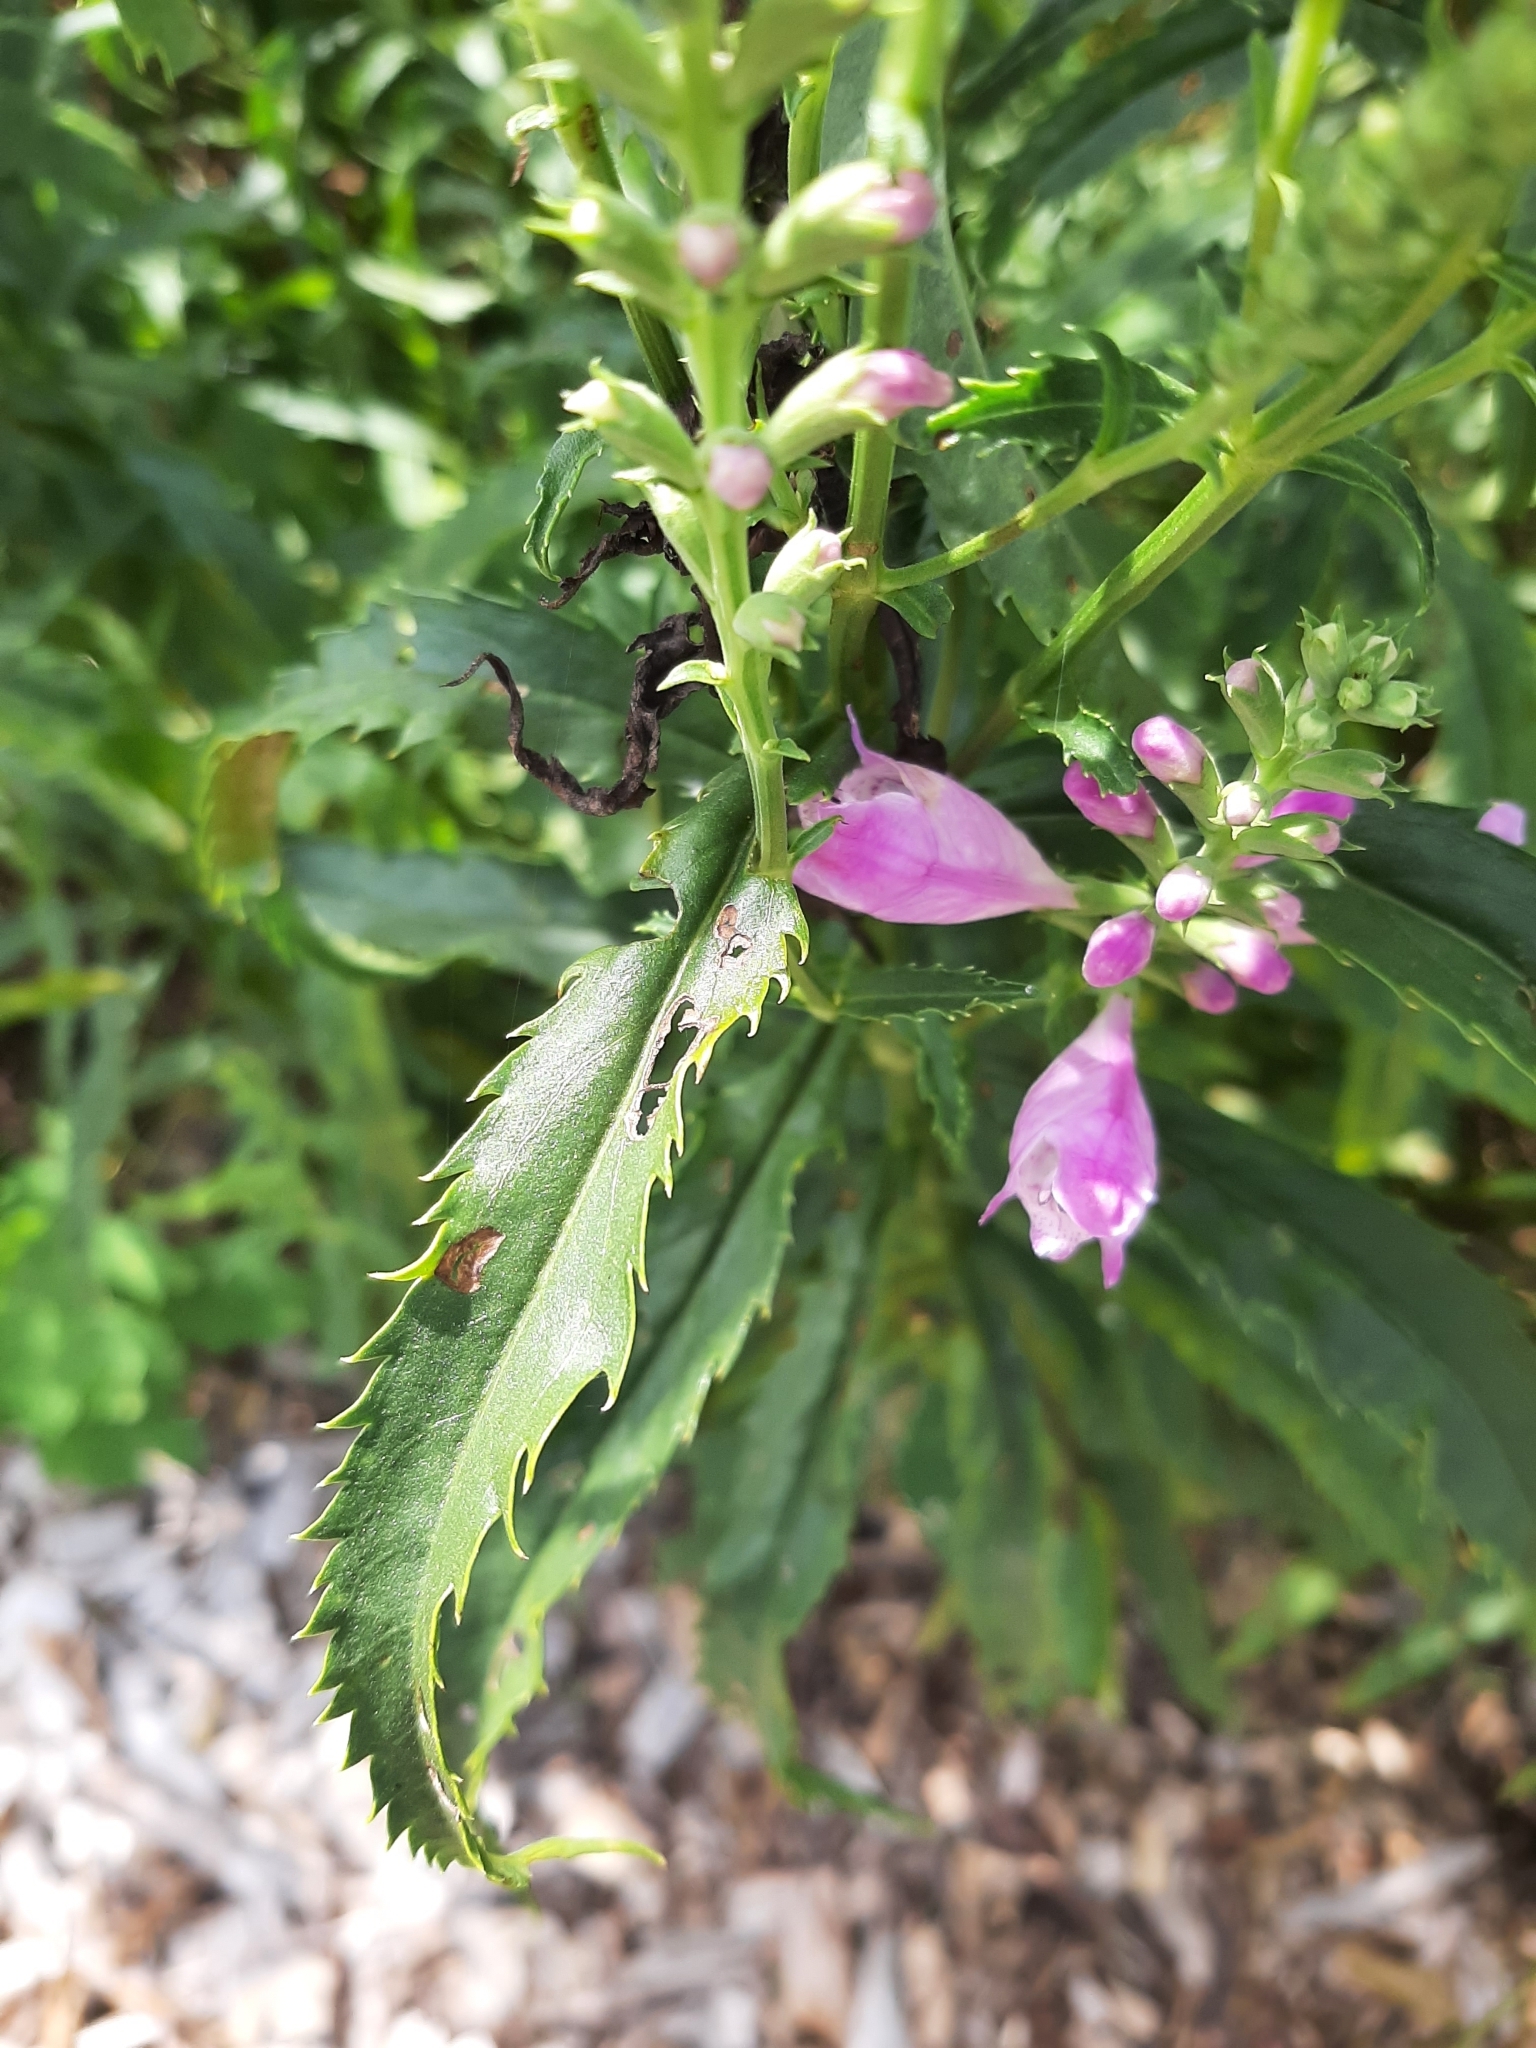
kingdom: Plantae
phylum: Tracheophyta
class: Magnoliopsida
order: Lamiales
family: Lamiaceae
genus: Physostegia
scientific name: Physostegia virginiana
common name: Obedient-plant
